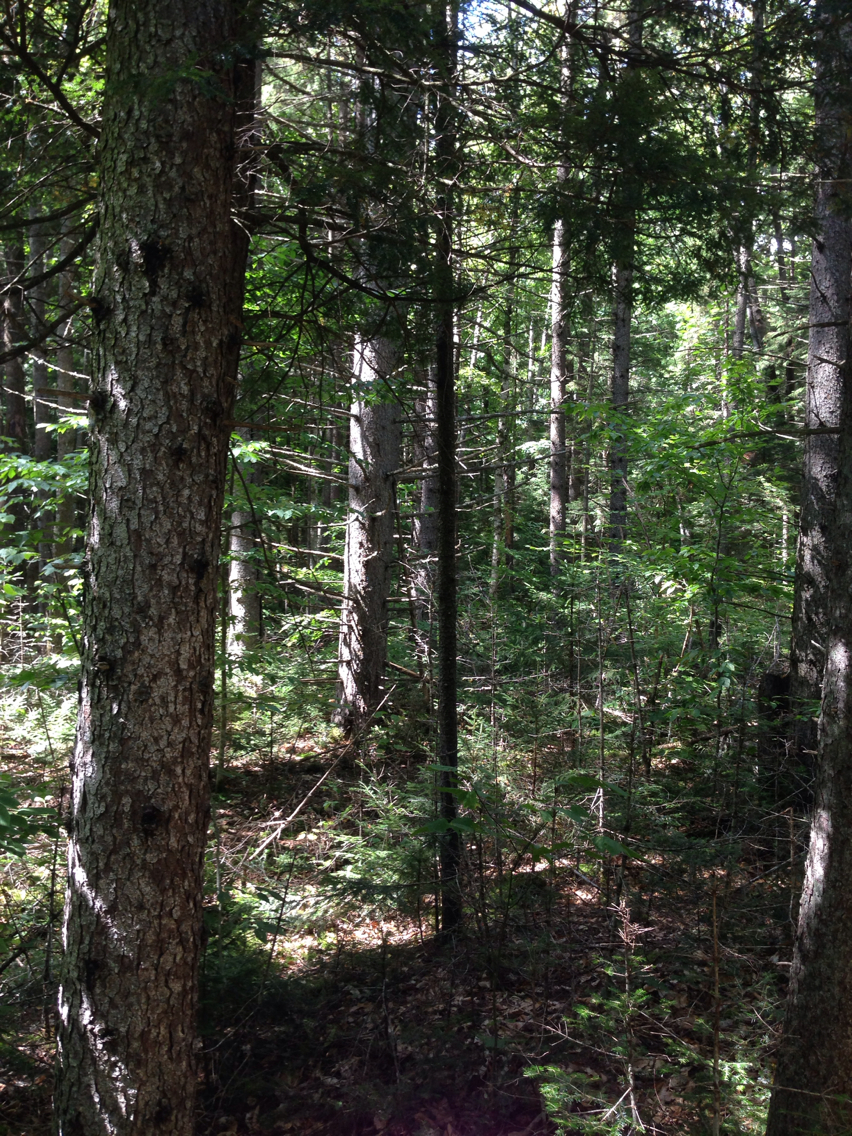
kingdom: Plantae
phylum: Tracheophyta
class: Pinopsida
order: Pinales
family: Pinaceae
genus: Picea
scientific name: Picea rubens
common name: Red spruce
